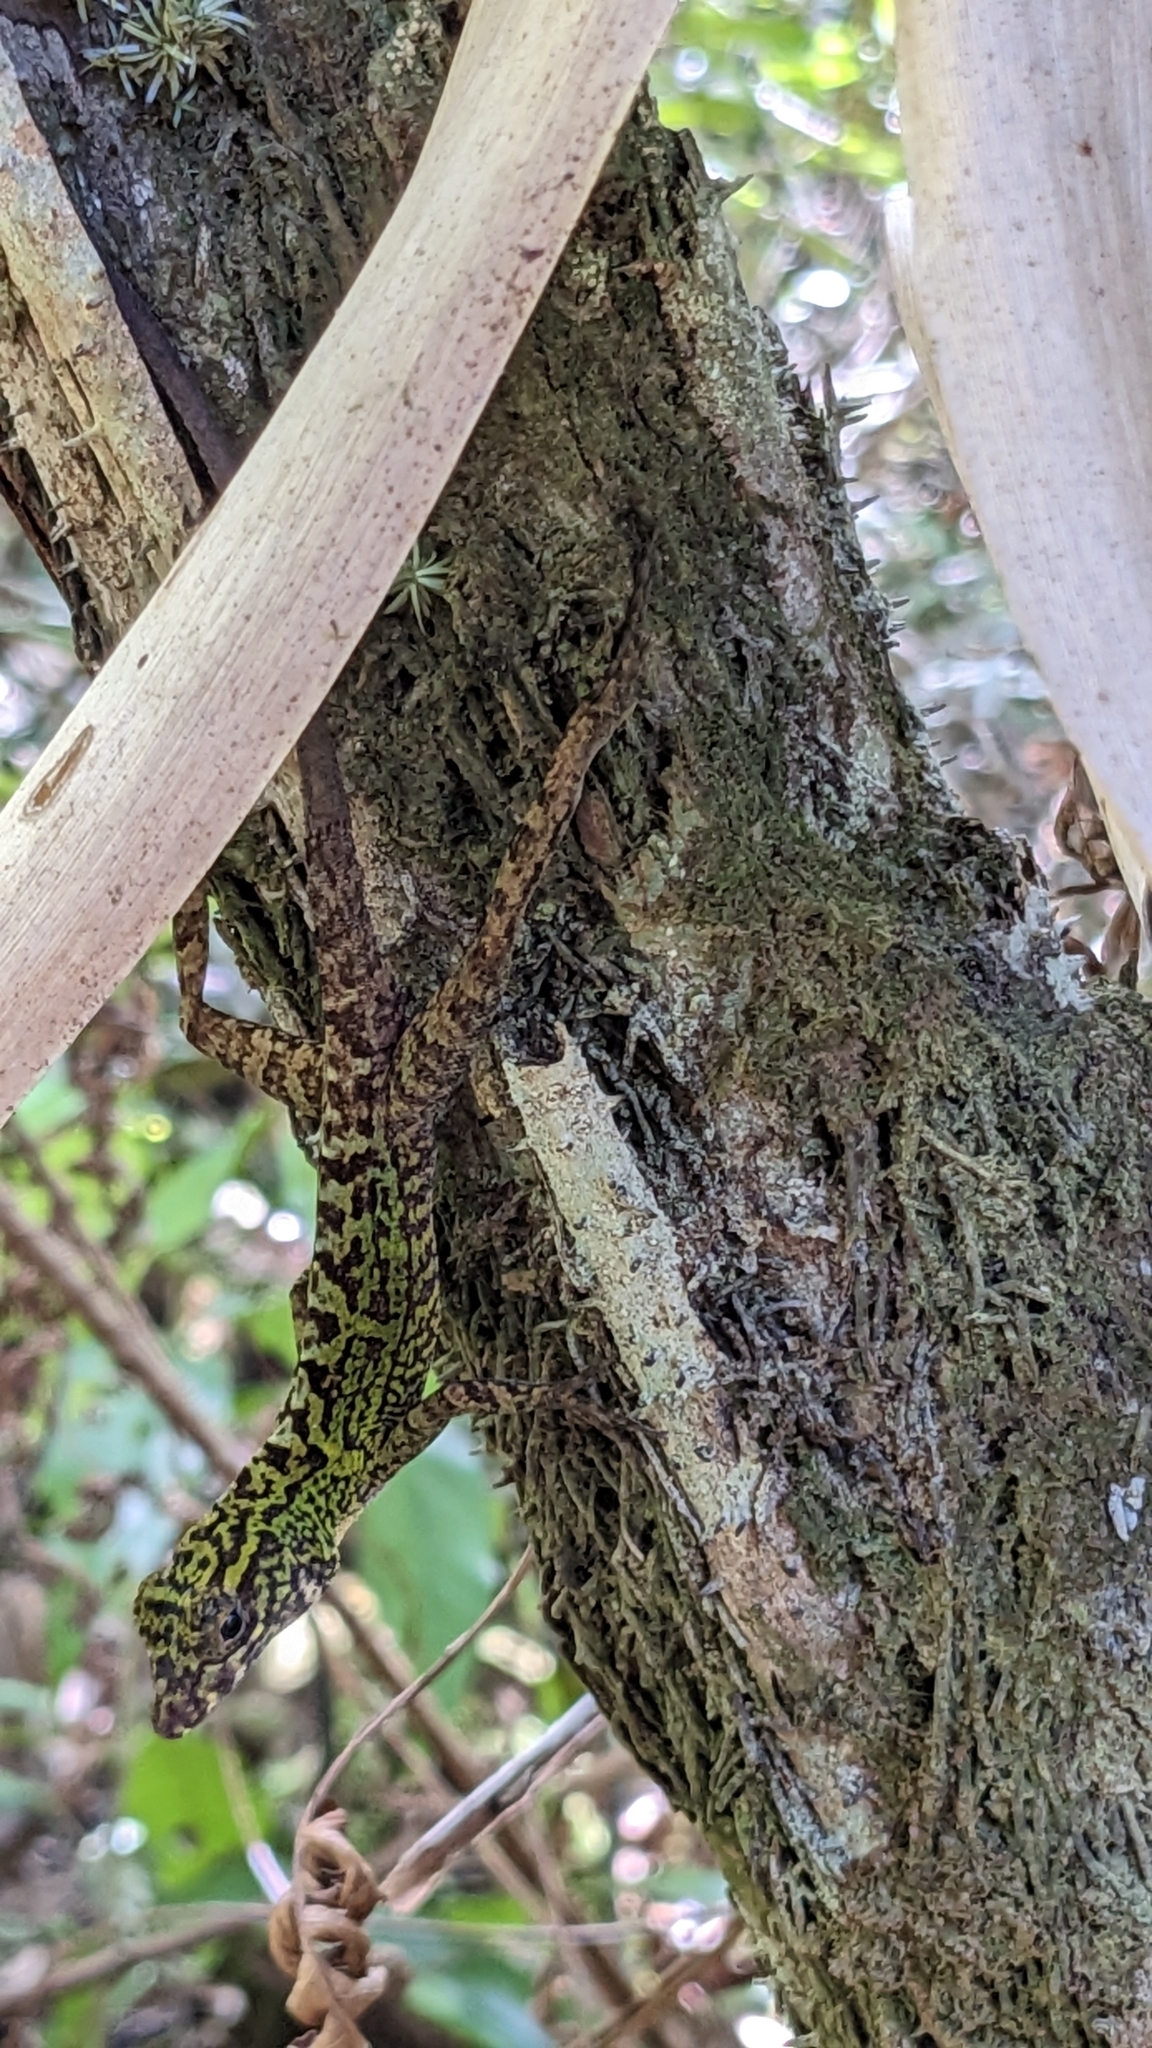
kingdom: Animalia
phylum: Chordata
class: Squamata
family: Dactyloidae
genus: Anolis
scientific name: Anolis rubribarbus
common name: Sagua de tanamo anole
